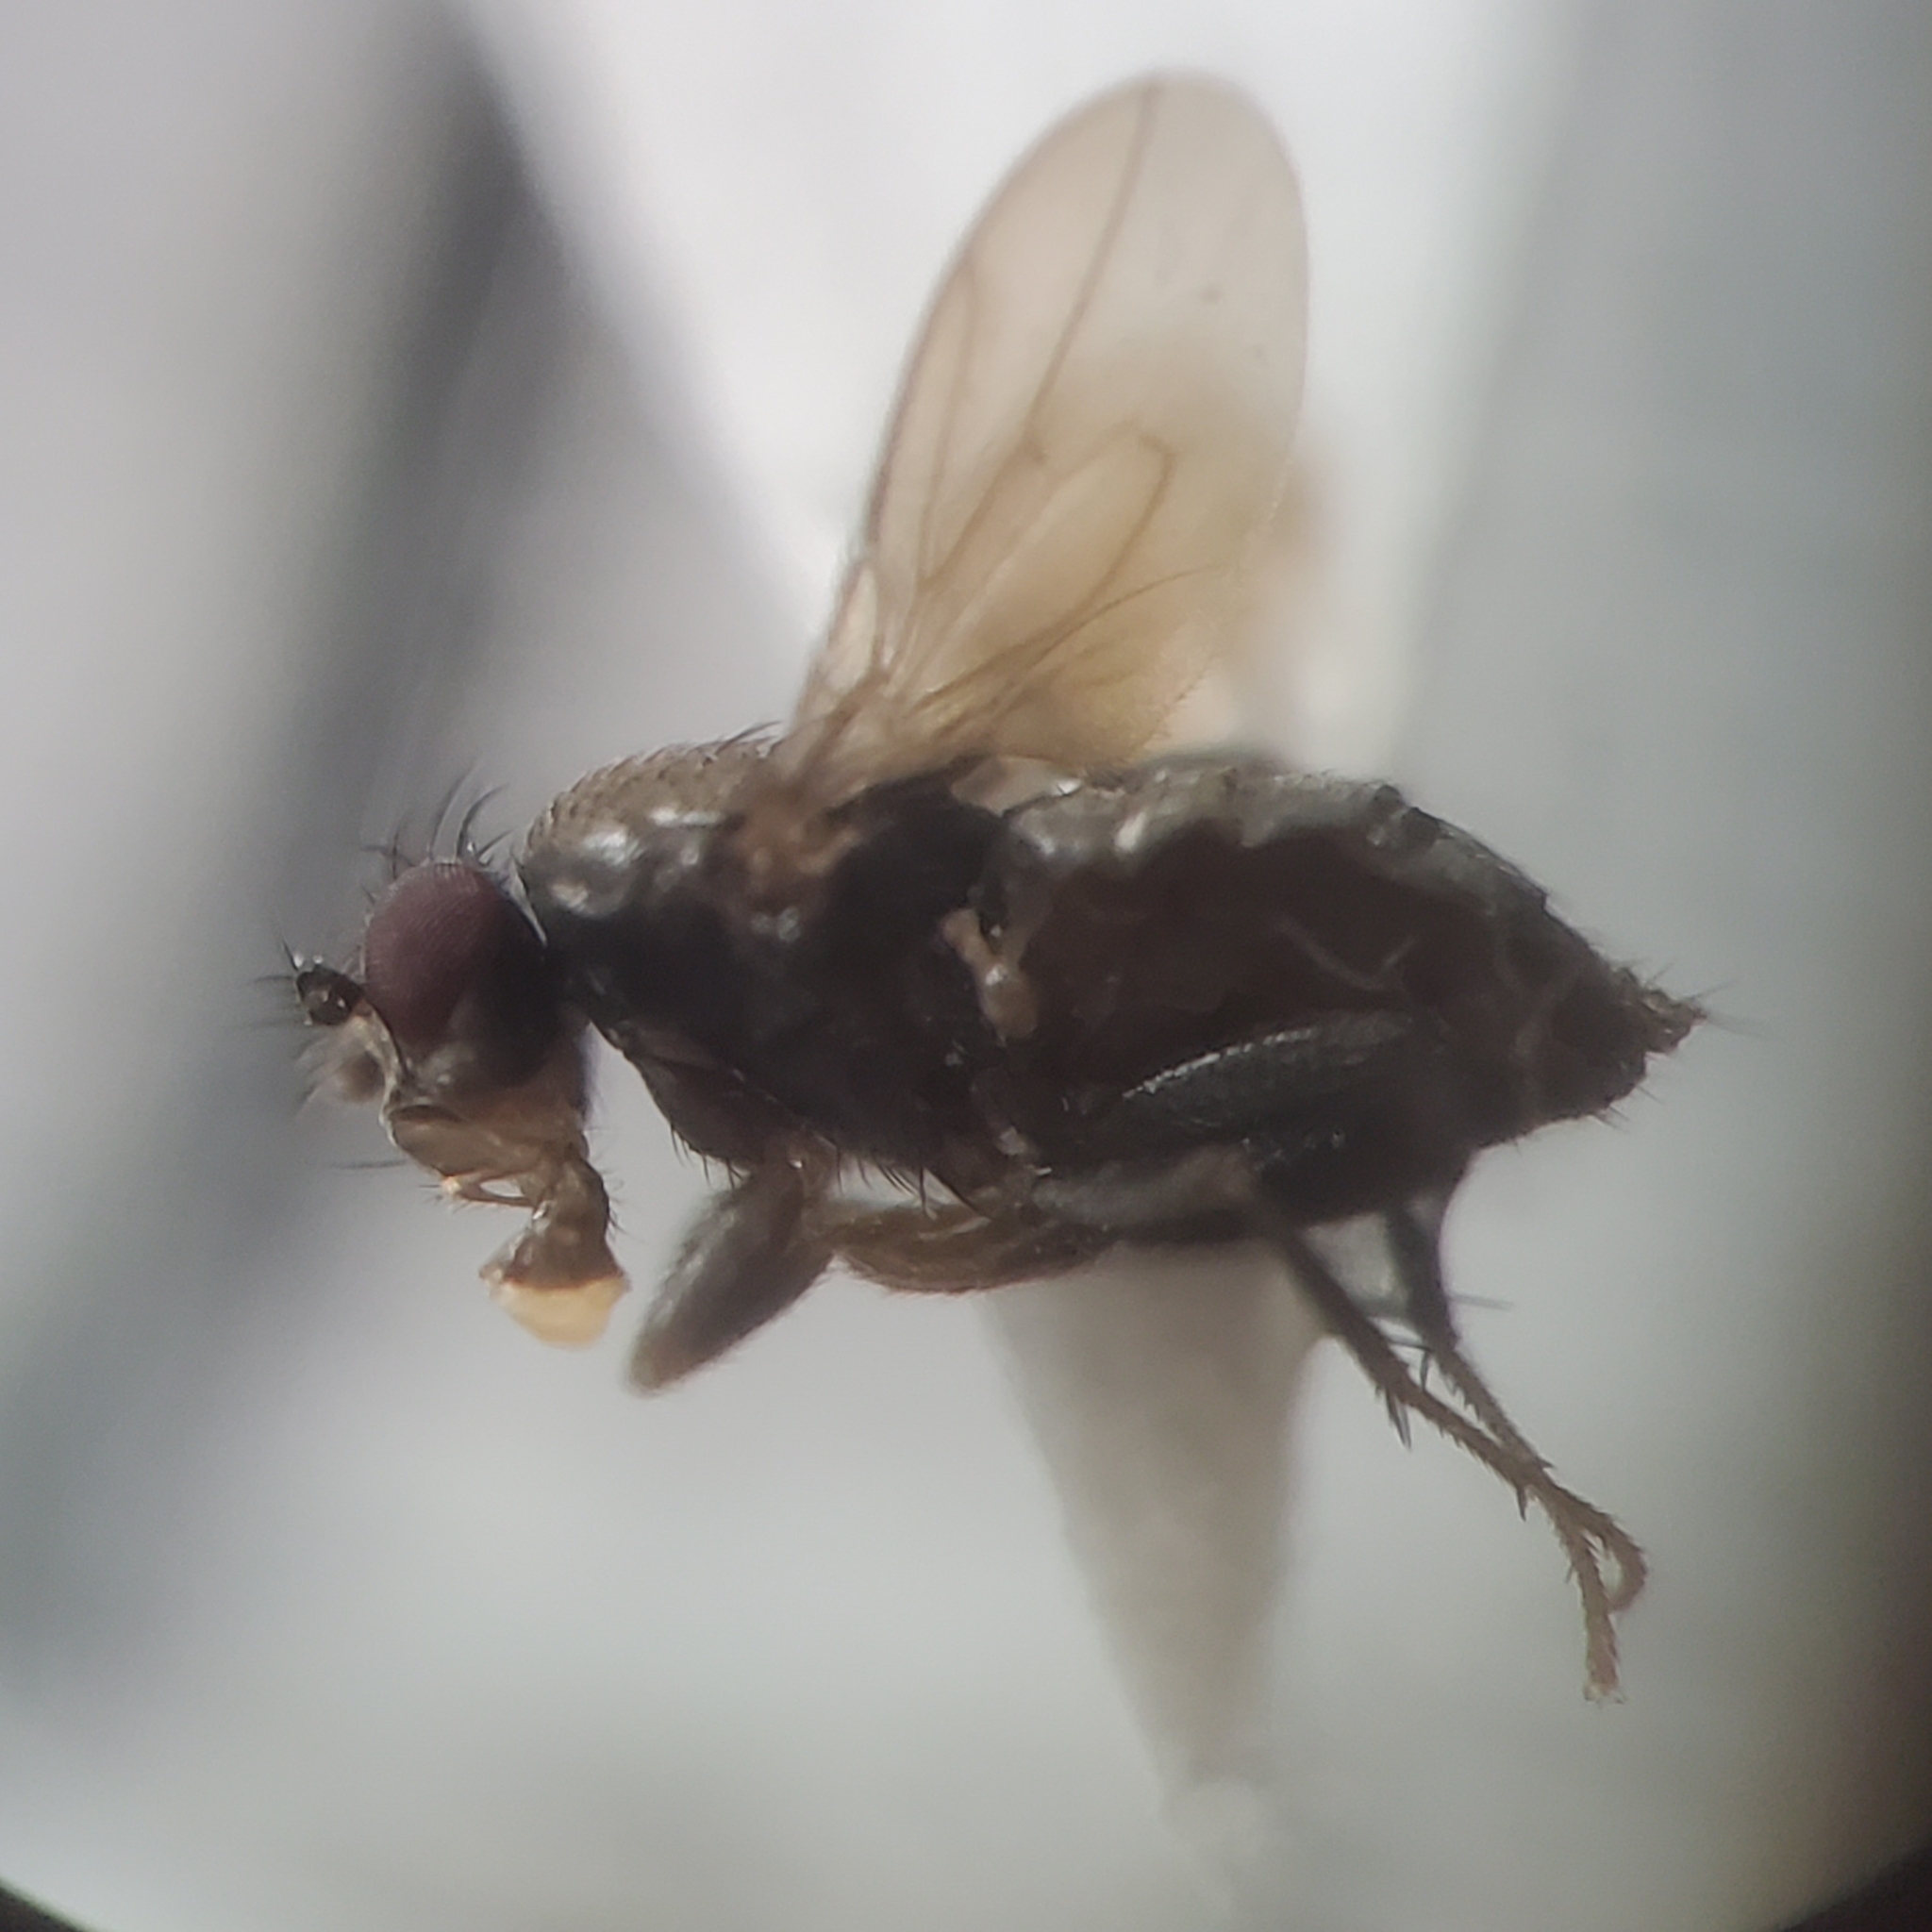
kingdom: Animalia
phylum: Arthropoda
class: Insecta
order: Diptera
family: Sphaeroceridae
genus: Pteremis
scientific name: Pteremis wirthi
